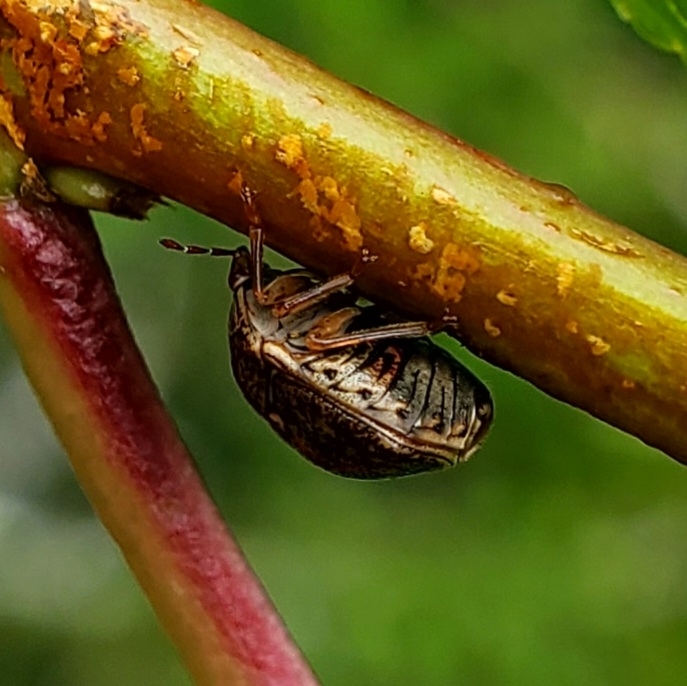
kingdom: Animalia
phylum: Arthropoda
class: Insecta
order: Hemiptera
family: Plataspidae
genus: Megacopta
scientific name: Megacopta cribraria
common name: Bean plataspid
